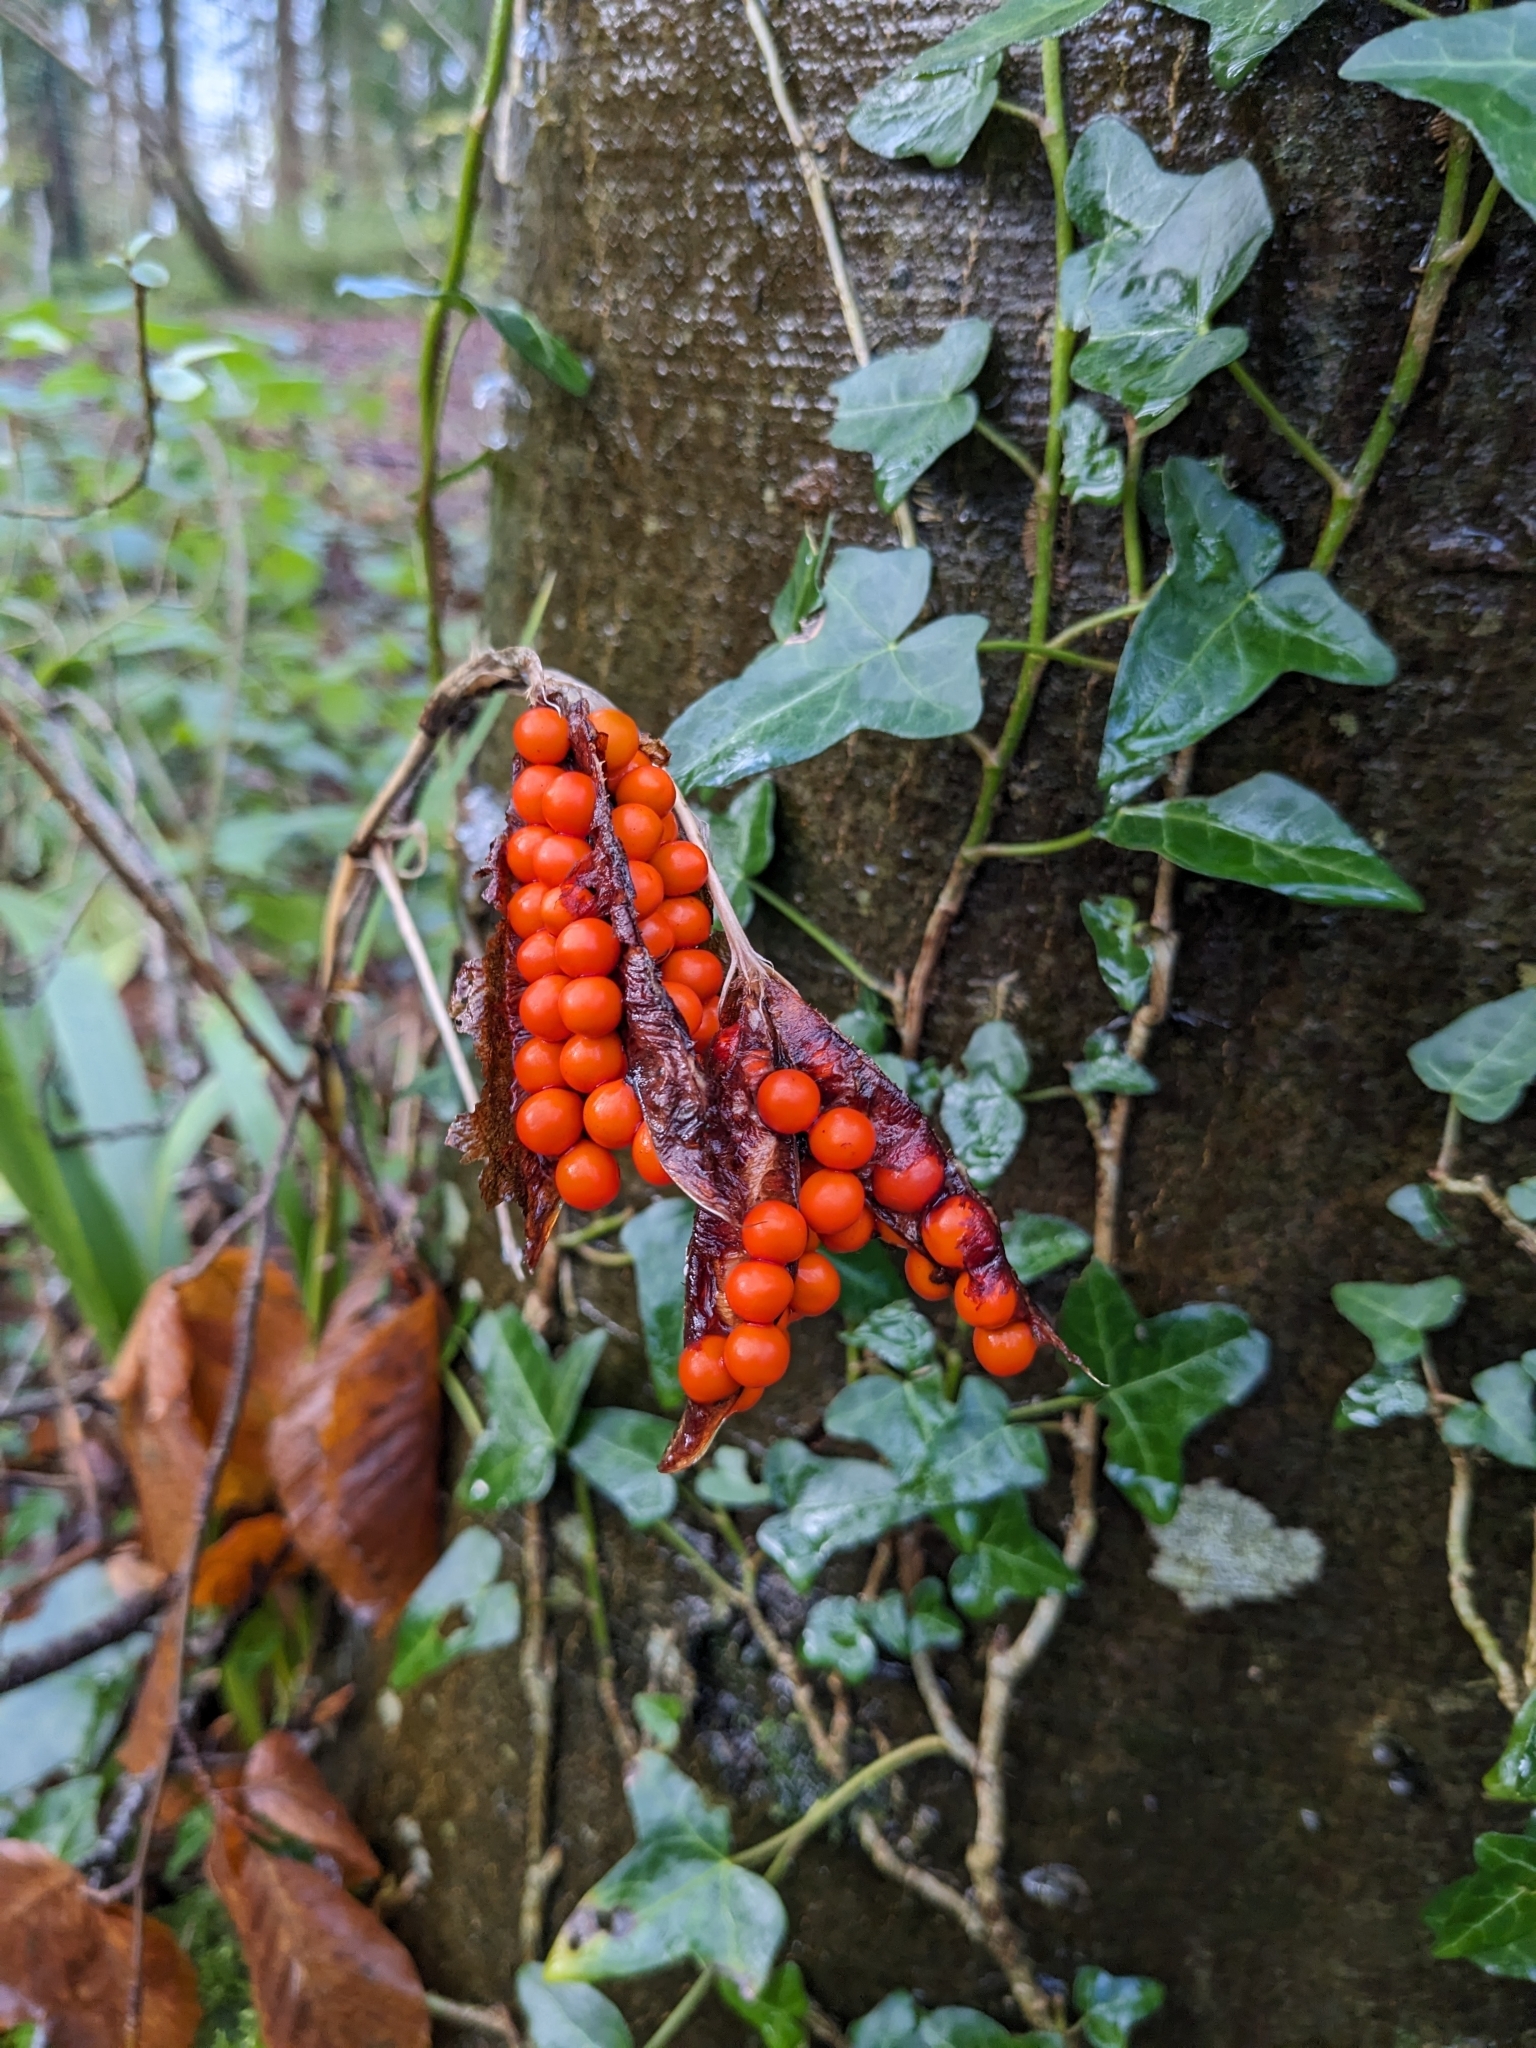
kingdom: Plantae
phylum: Tracheophyta
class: Liliopsida
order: Asparagales
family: Iridaceae
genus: Iris
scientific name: Iris foetidissima
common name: Stinking iris
